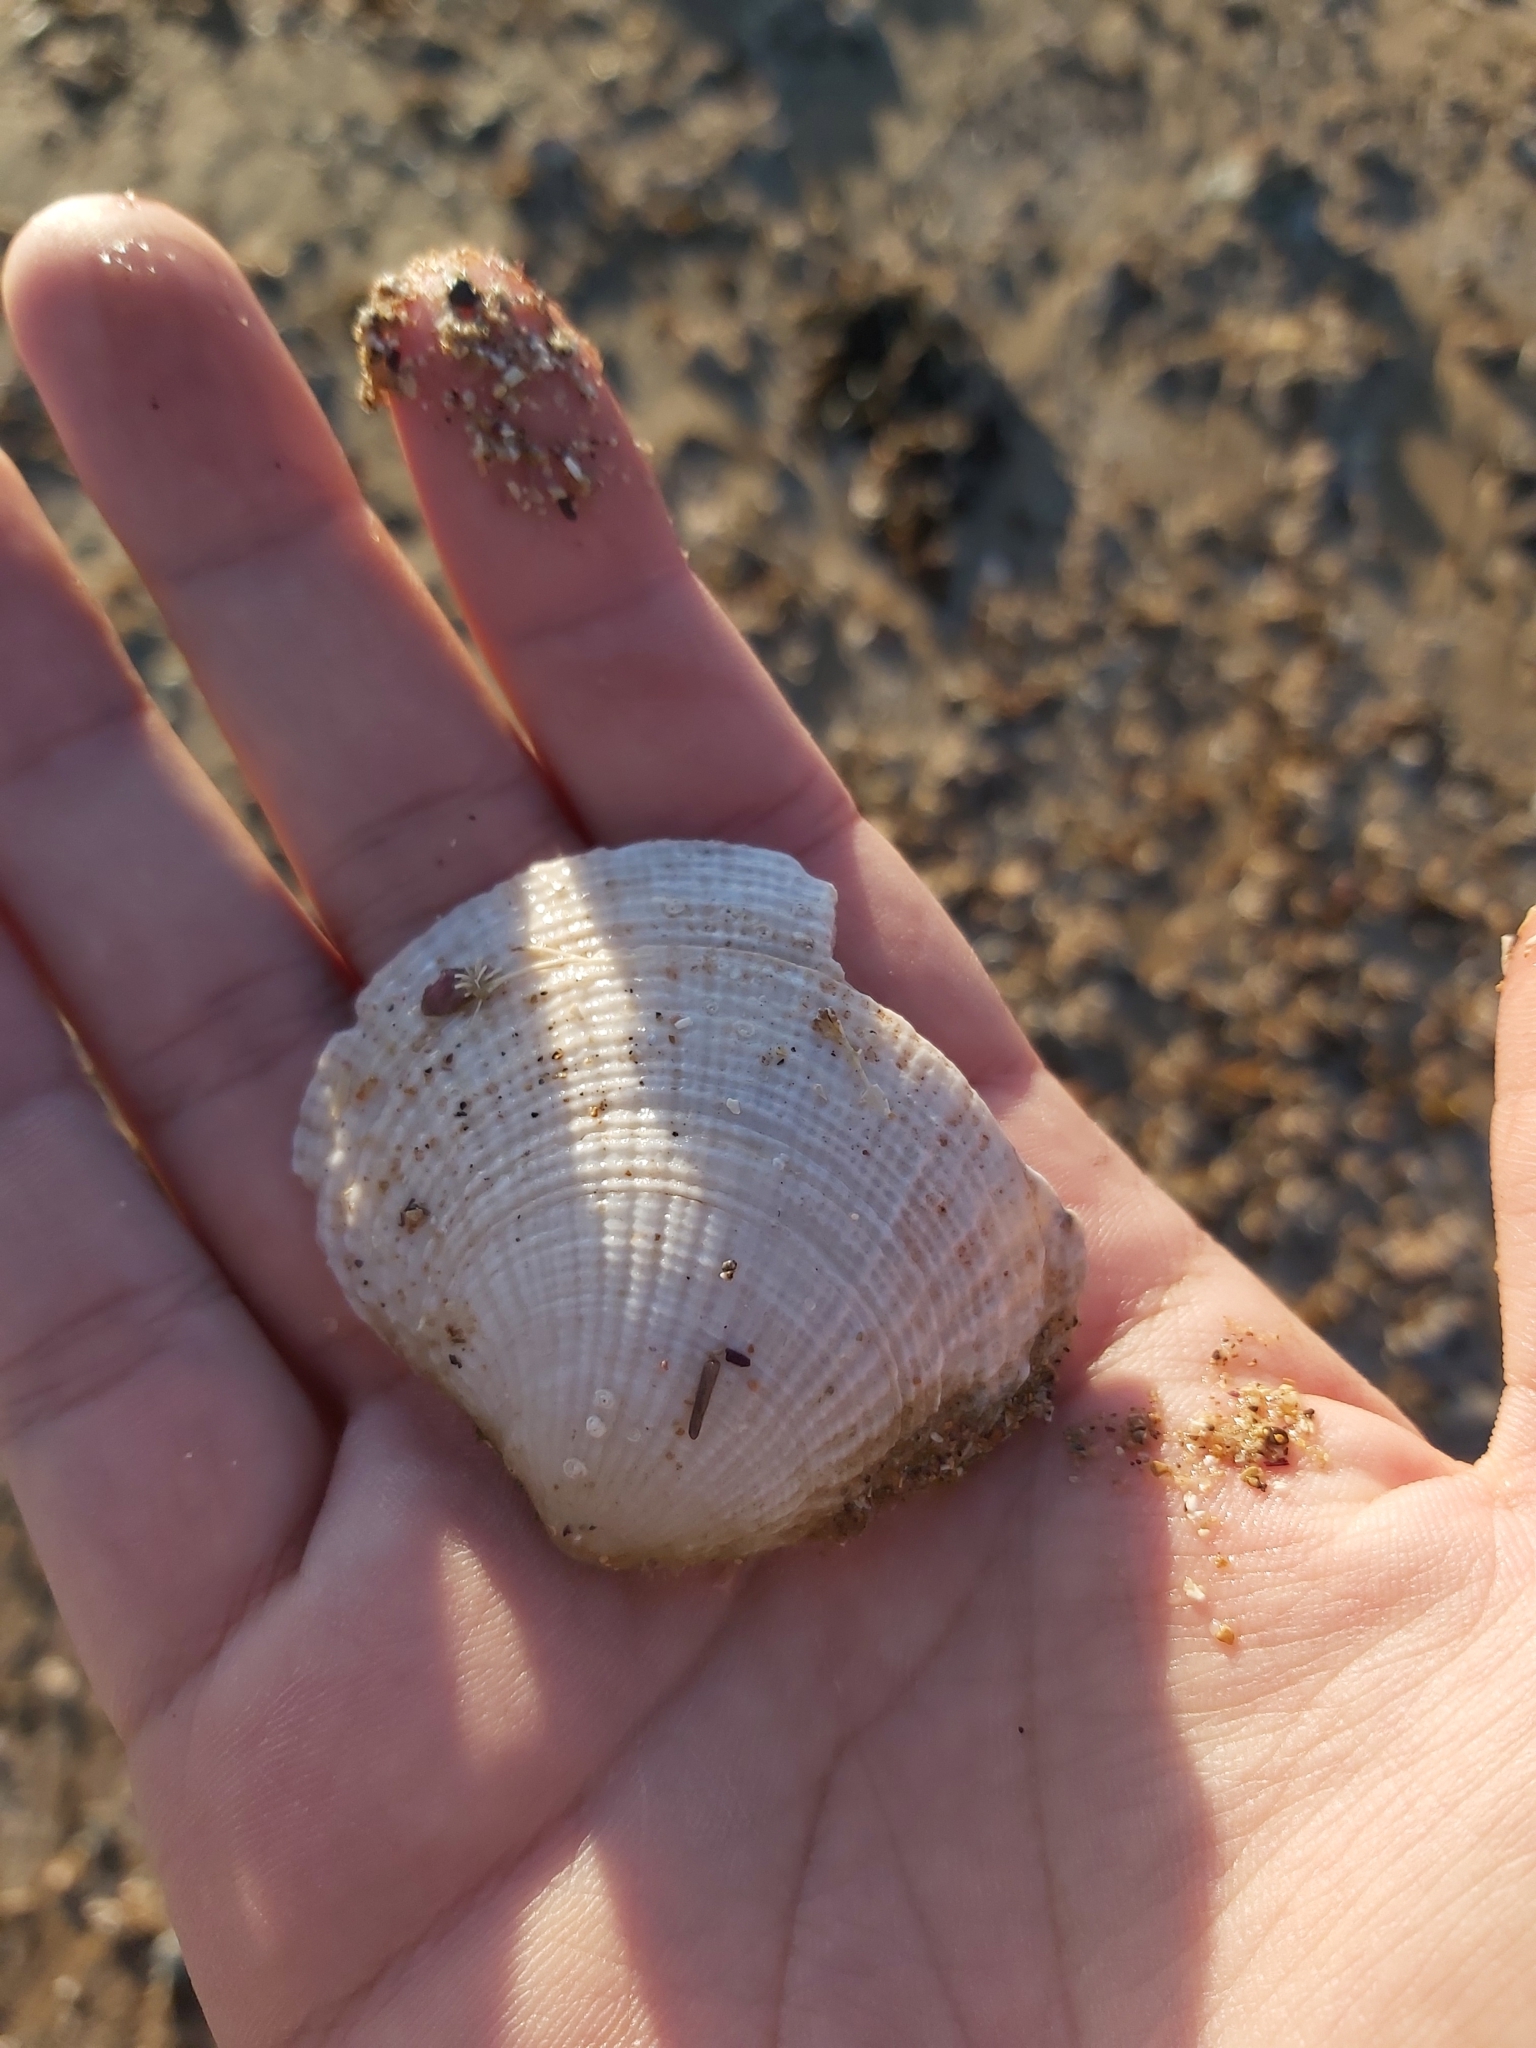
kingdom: Animalia
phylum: Mollusca
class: Bivalvia
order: Lucinida
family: Lucinidae
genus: Codakia
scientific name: Codakia rugifera
